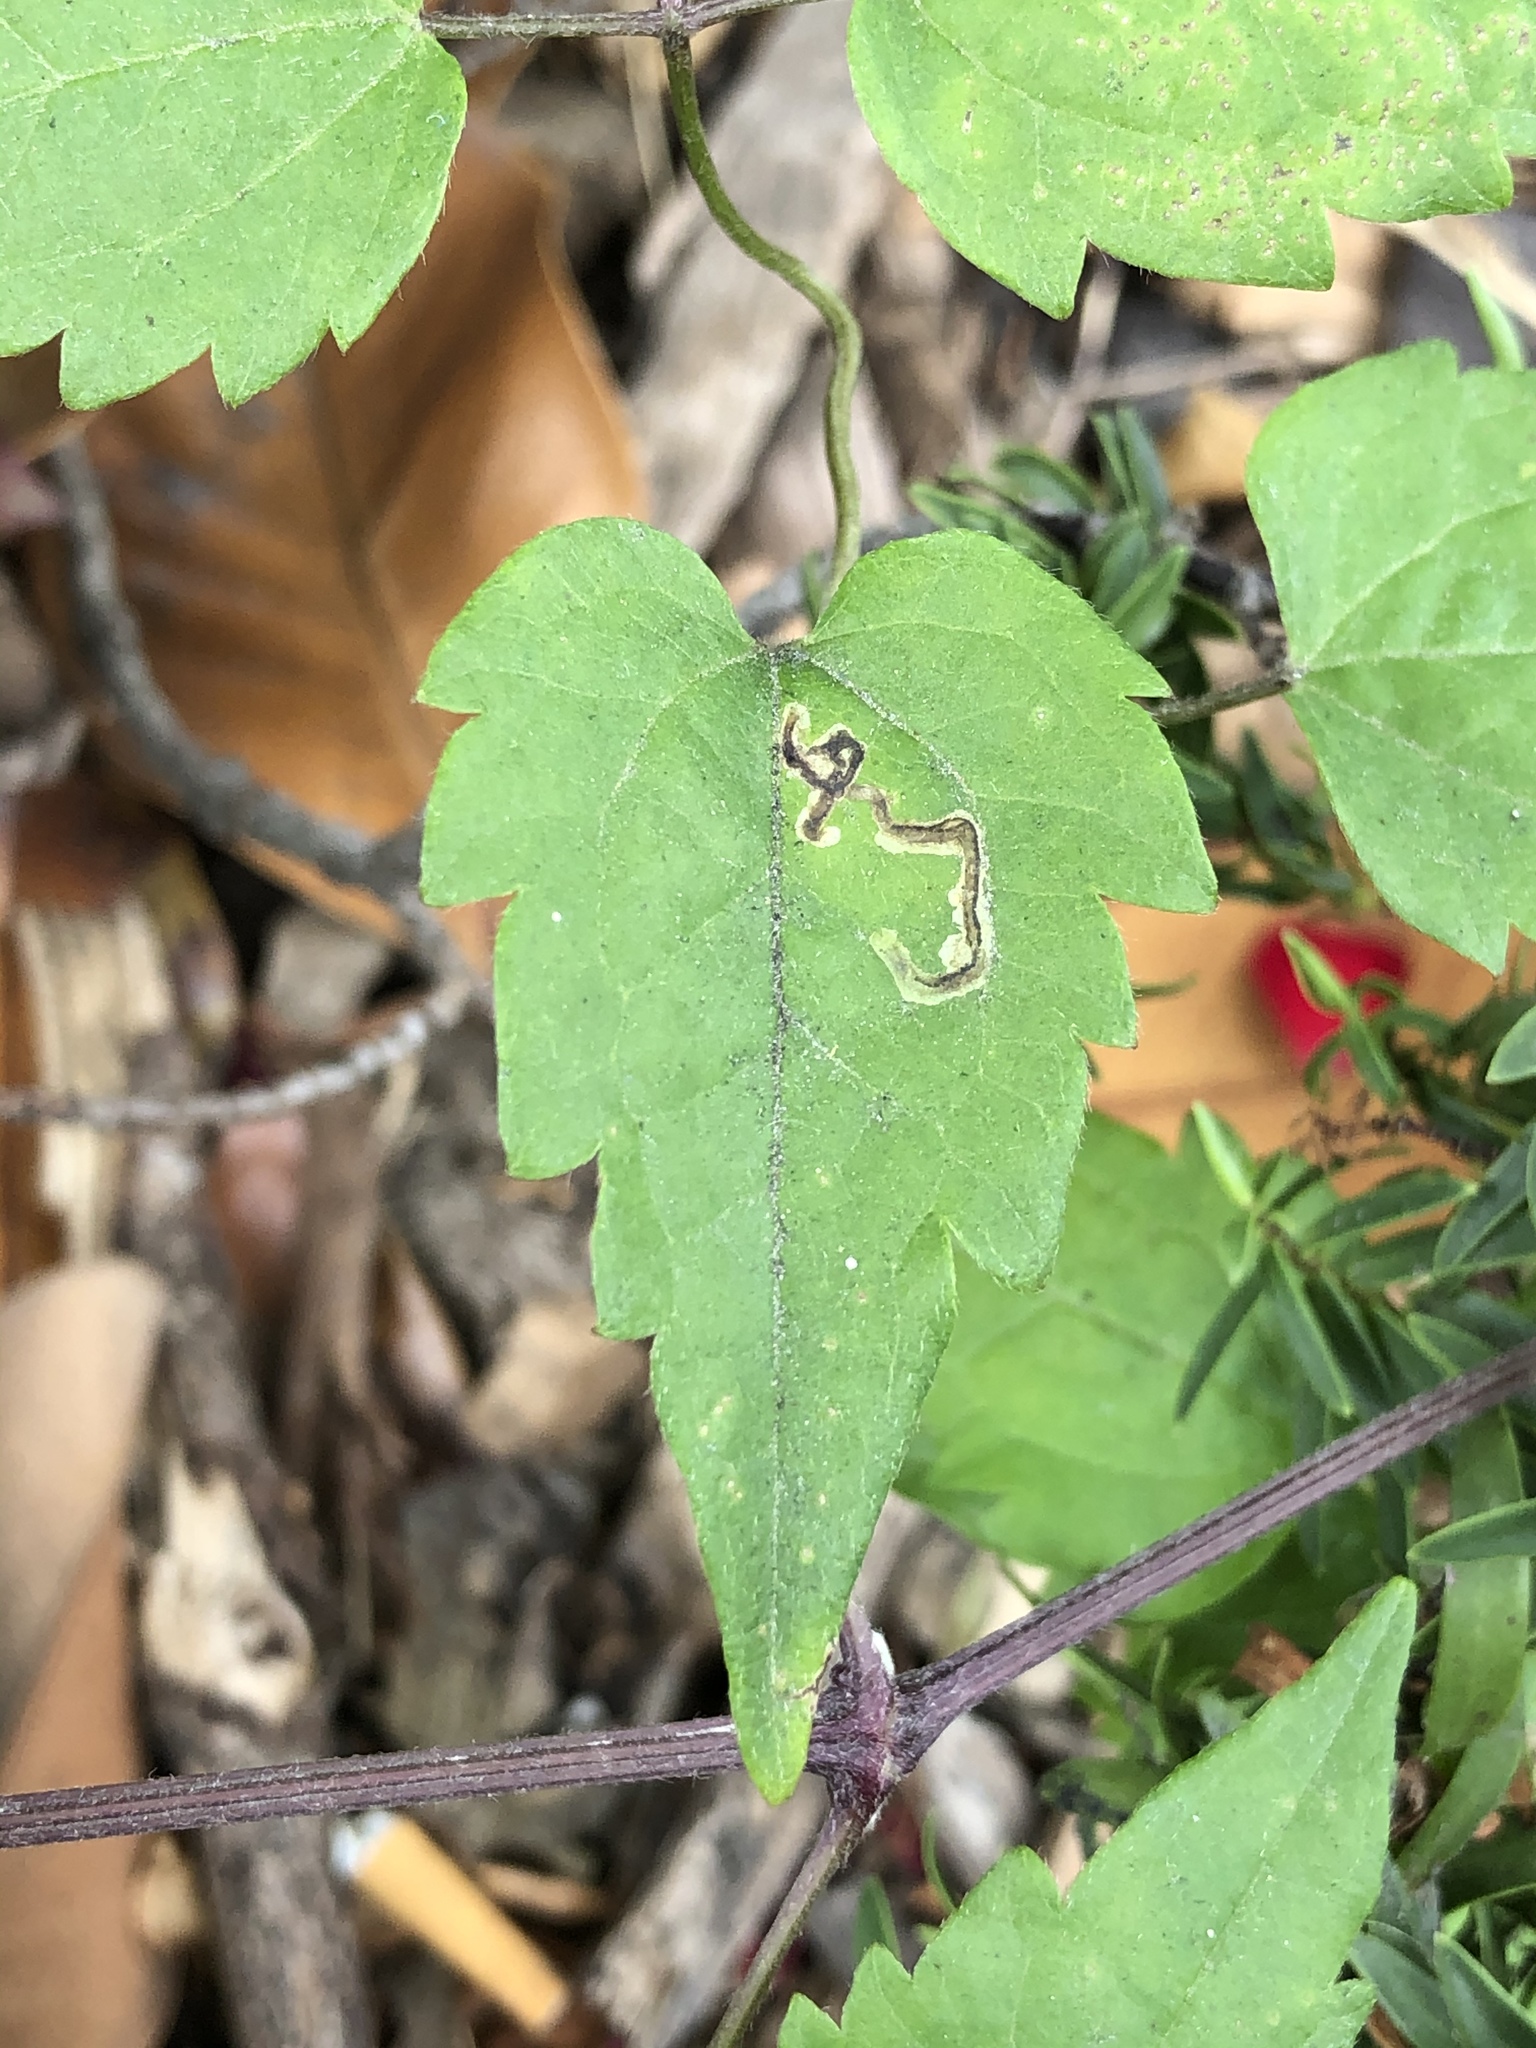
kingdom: Plantae
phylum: Tracheophyta
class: Magnoliopsida
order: Ranunculales
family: Ranunculaceae
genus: Clematis
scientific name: Clematis vitalba
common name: Evergreen clematis
